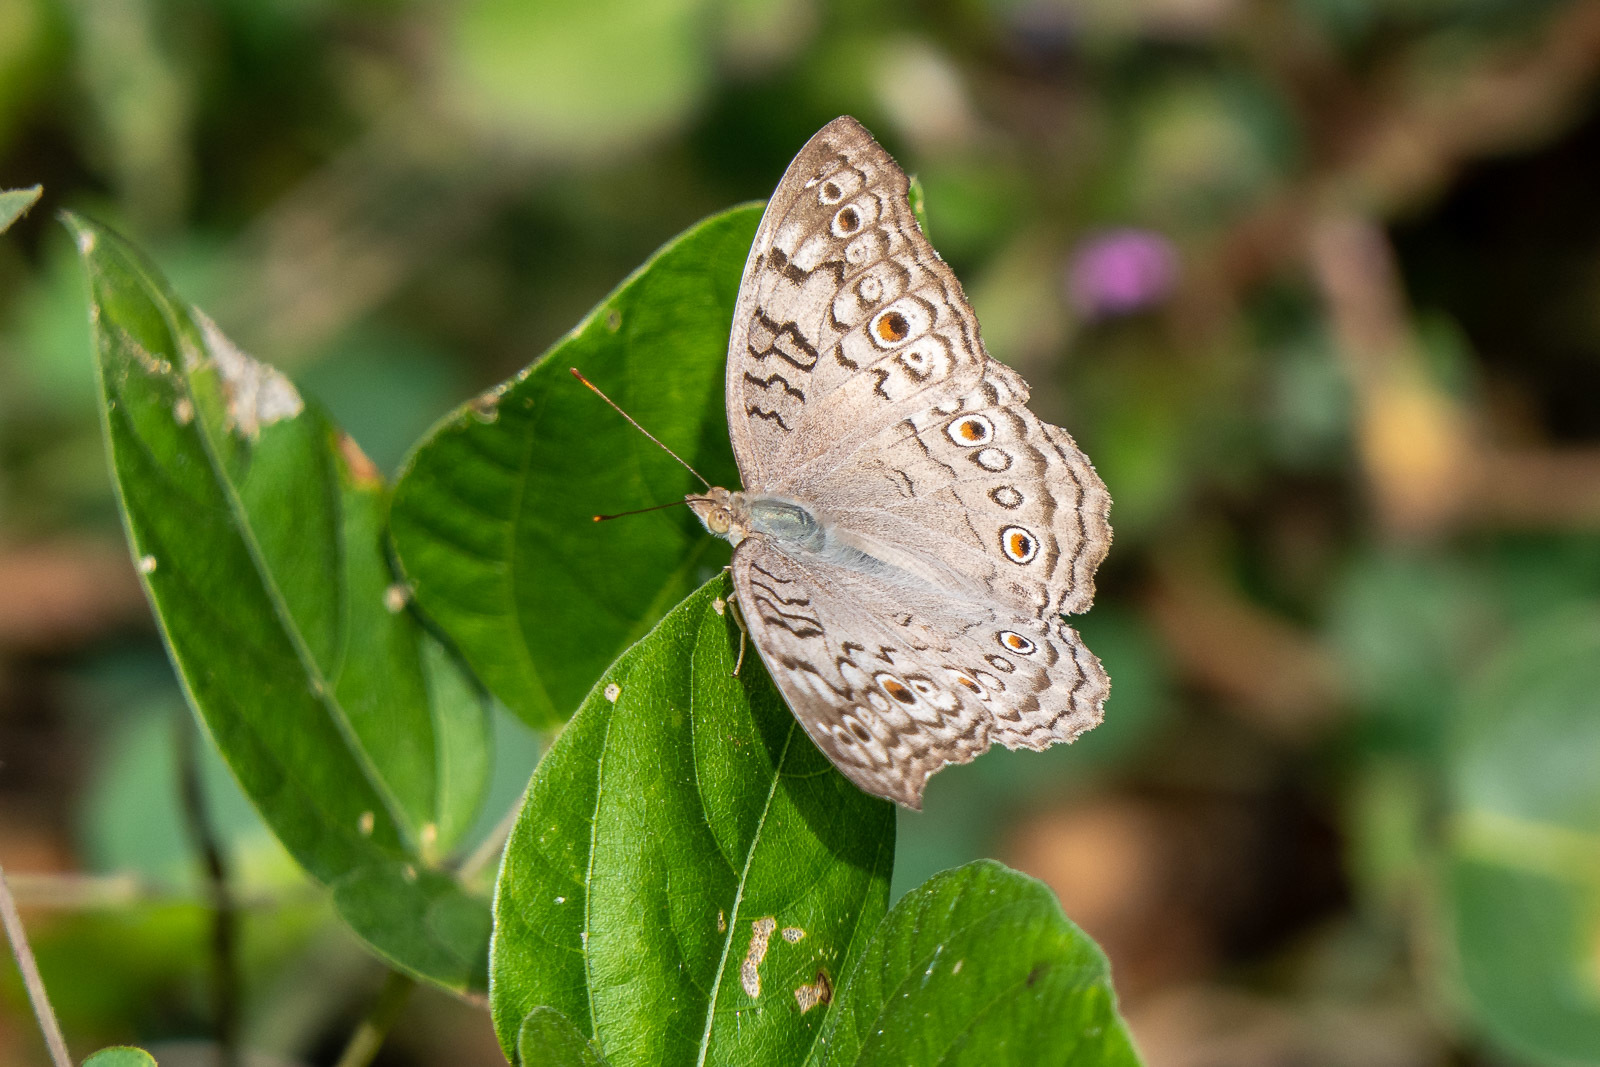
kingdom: Animalia
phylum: Arthropoda
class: Insecta
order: Lepidoptera
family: Nymphalidae
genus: Junonia
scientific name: Junonia atlites
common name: Grey pansy
